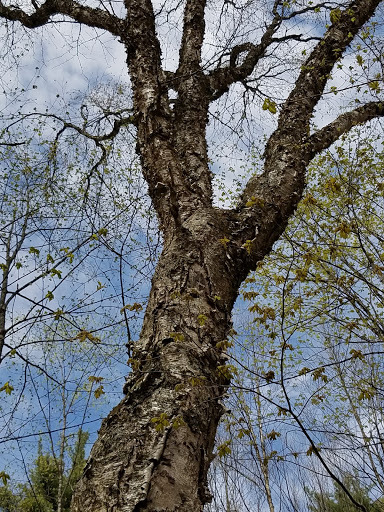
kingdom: Plantae
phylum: Tracheophyta
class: Magnoliopsida
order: Fagales
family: Betulaceae
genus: Betula
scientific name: Betula alleghaniensis
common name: Yellow birch
